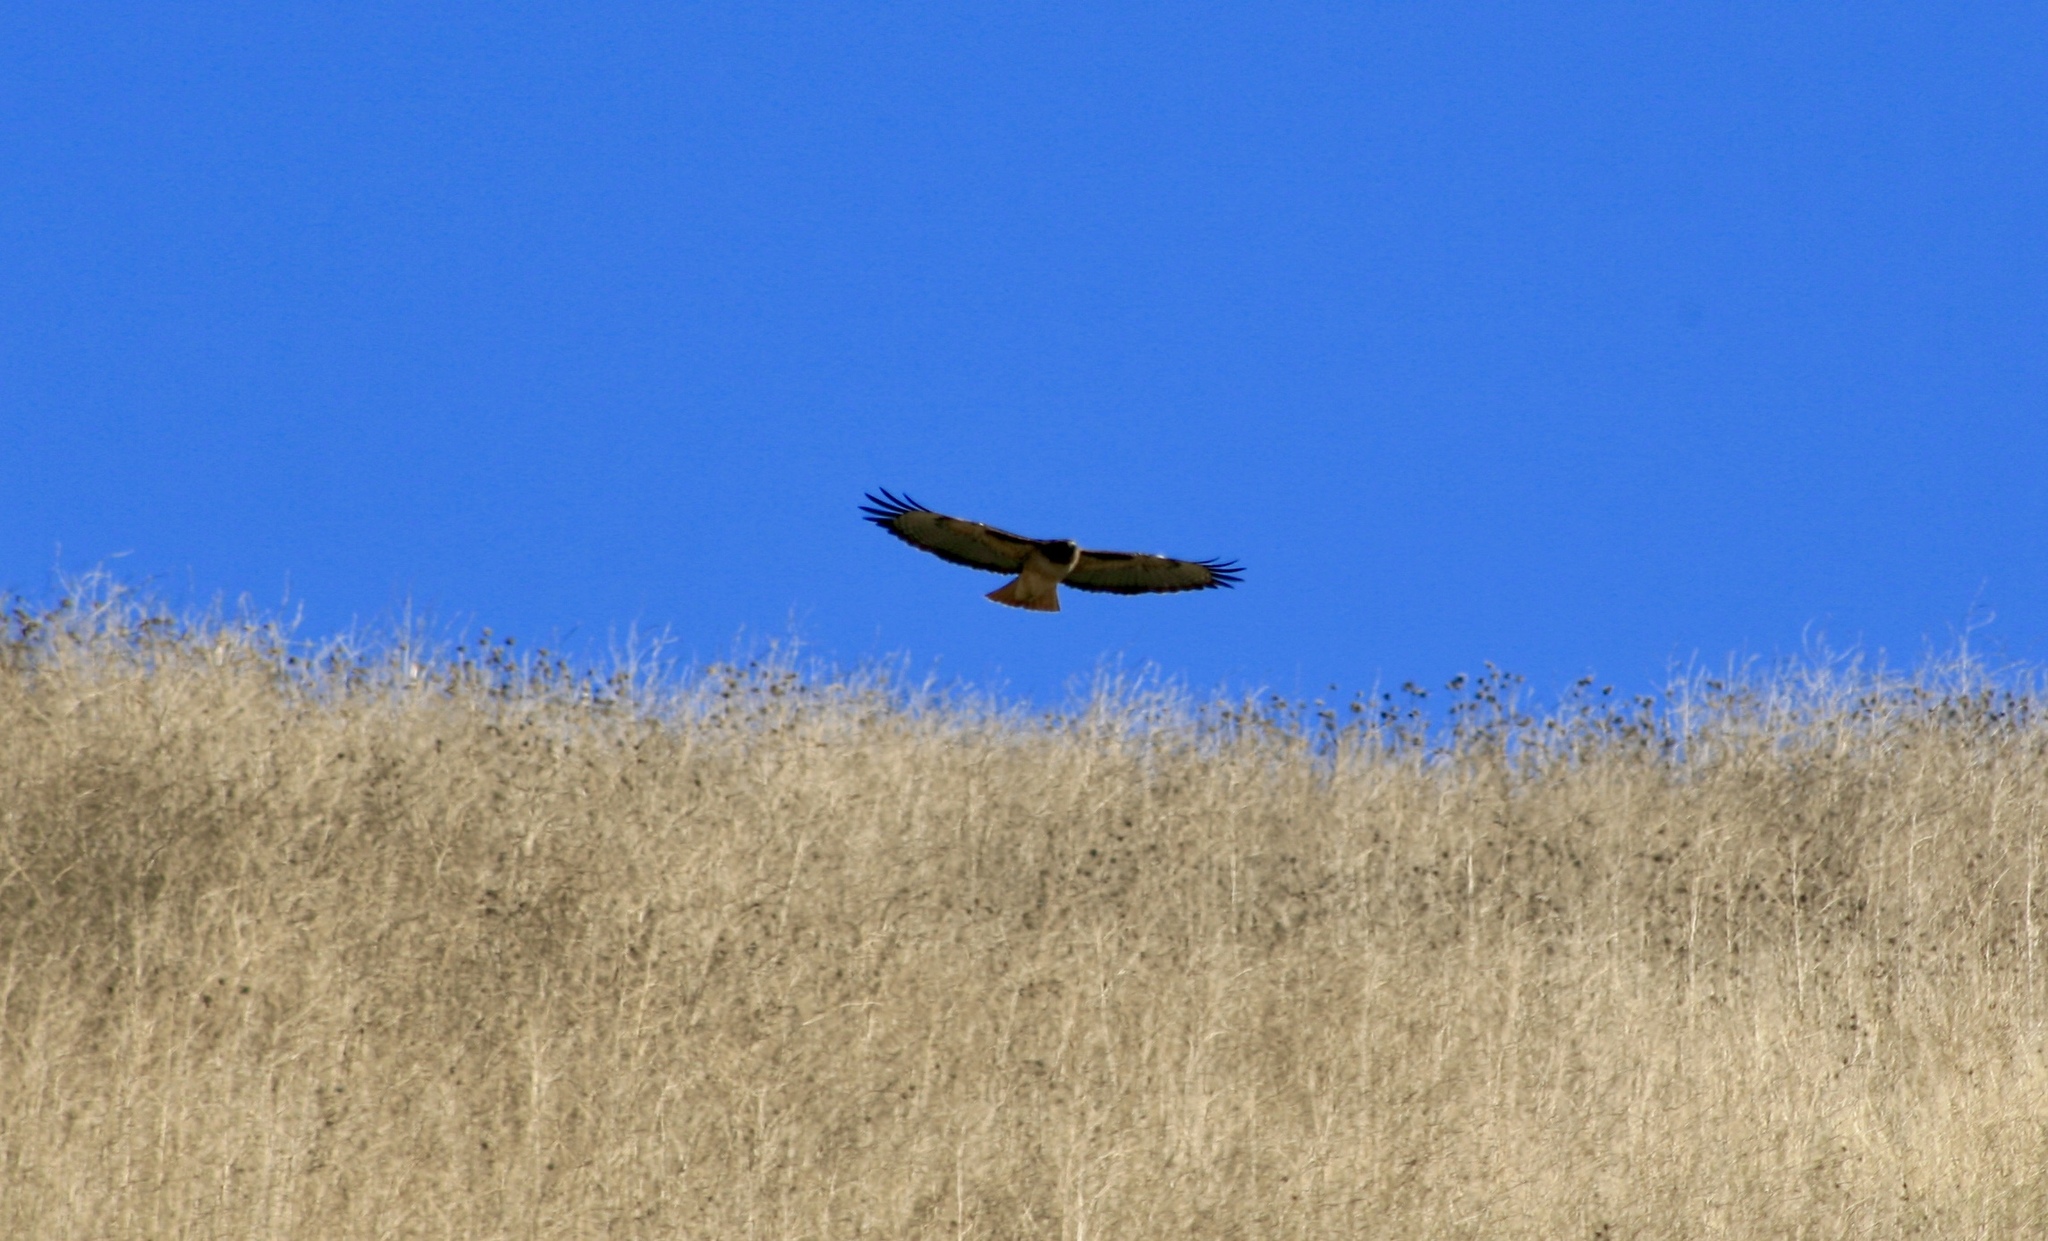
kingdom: Animalia
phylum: Chordata
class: Aves
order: Accipitriformes
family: Accipitridae
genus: Buteo
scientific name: Buteo jamaicensis
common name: Red-tailed hawk
